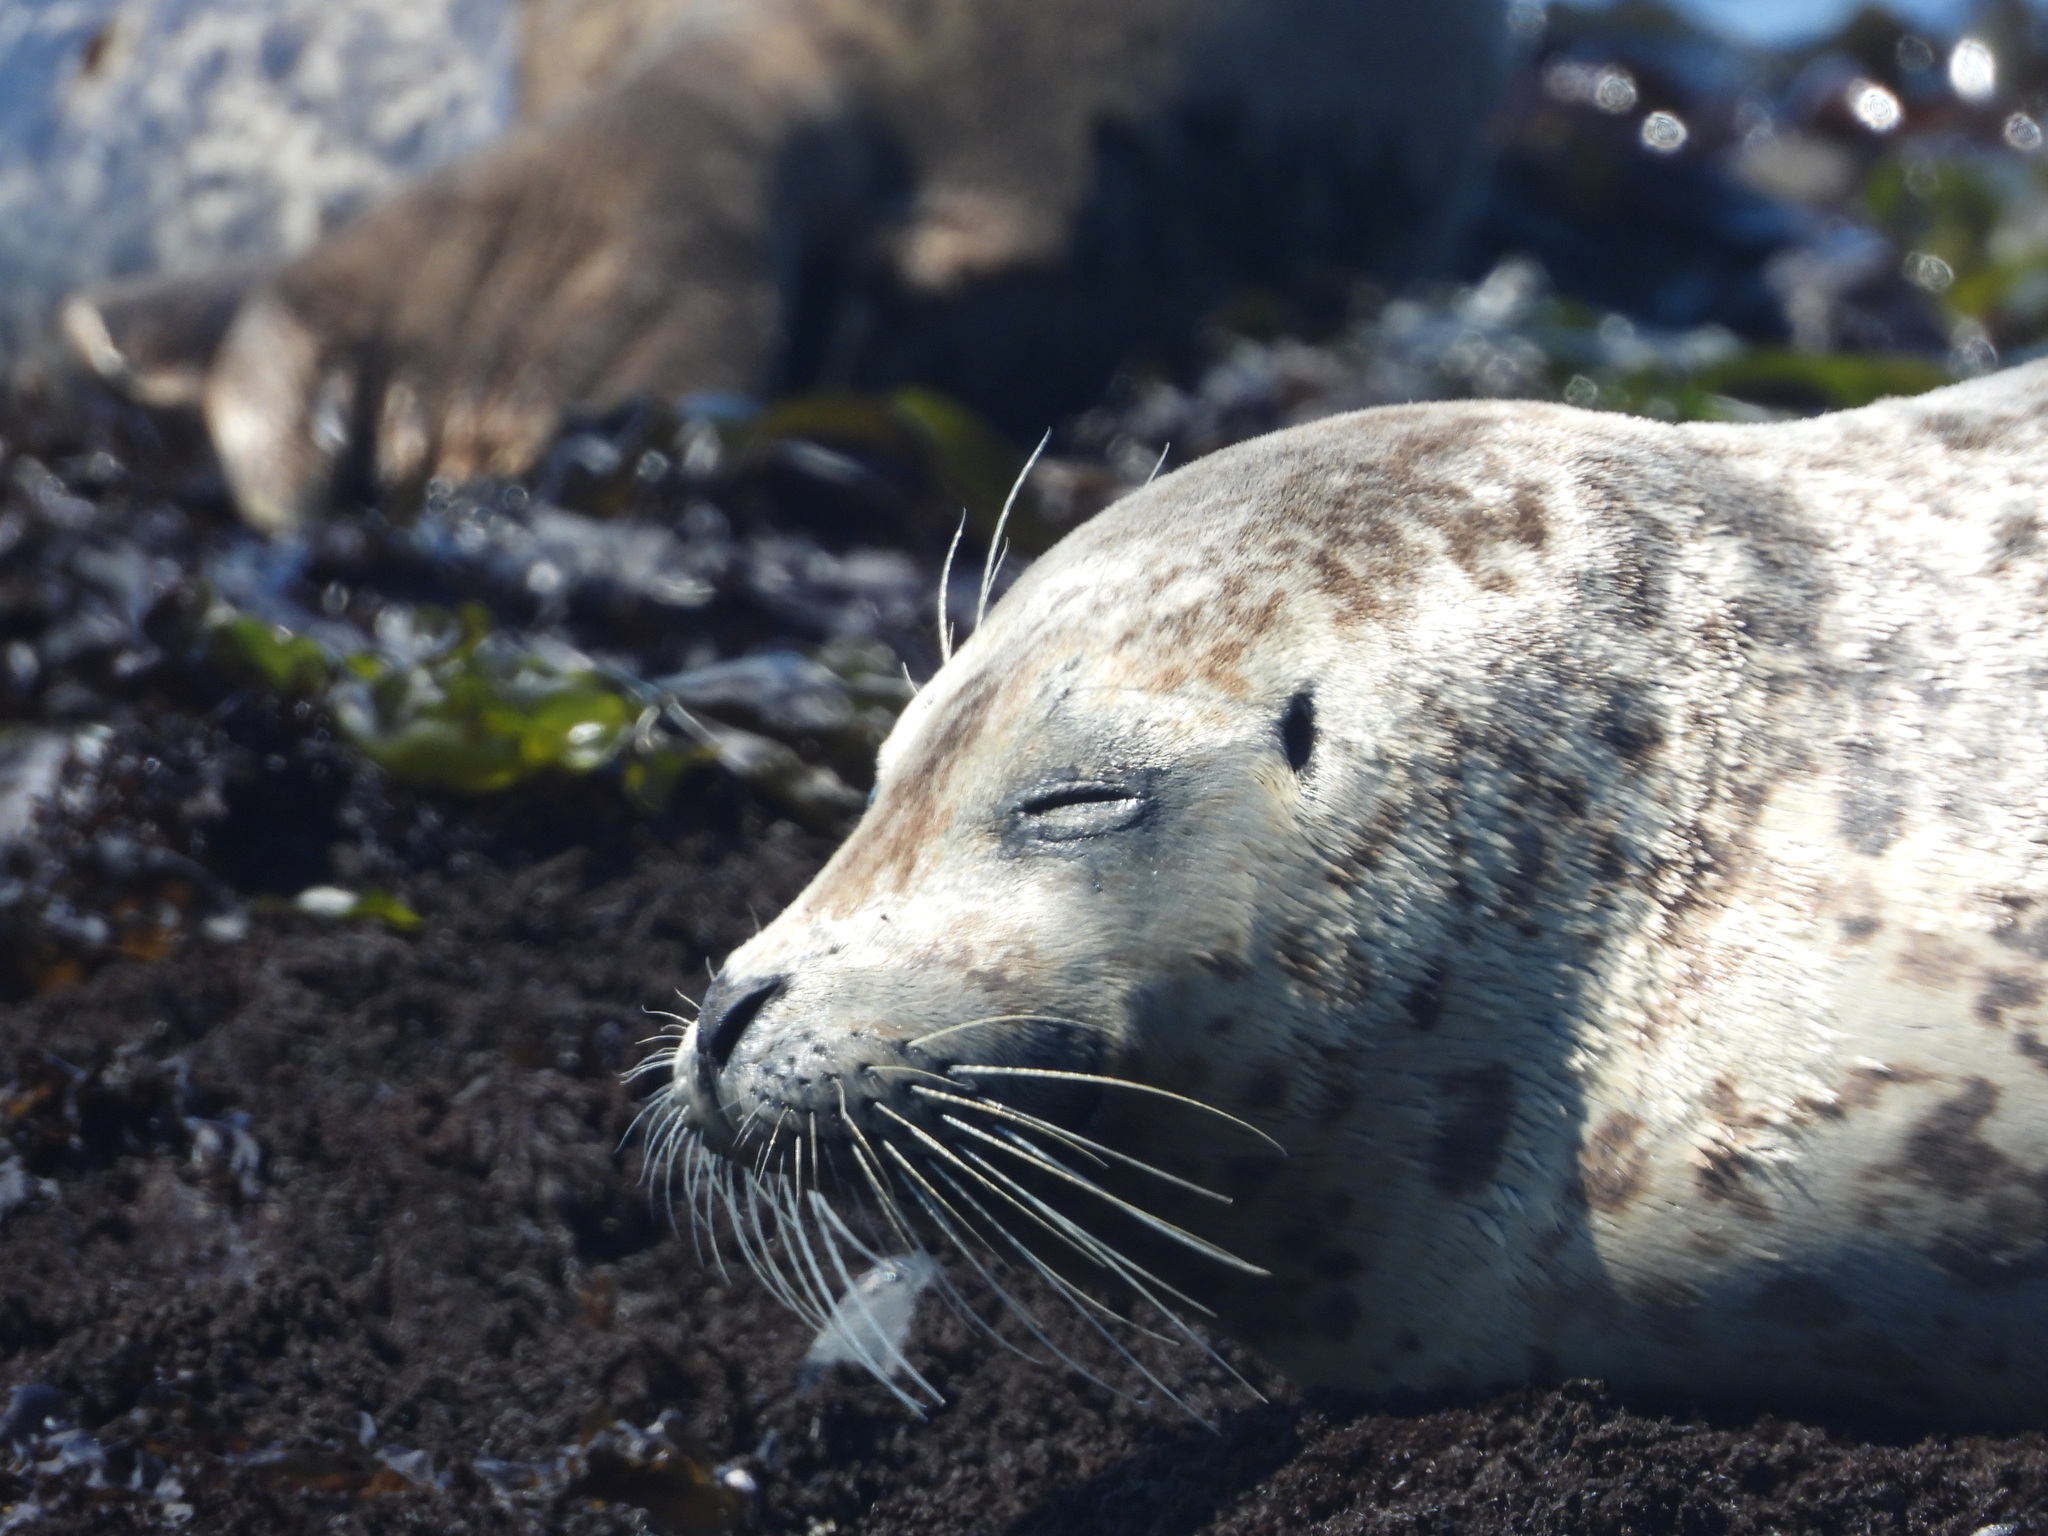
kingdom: Animalia
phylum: Chordata
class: Mammalia
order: Carnivora
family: Phocidae
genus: Phoca
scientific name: Phoca vitulina
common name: Harbor seal
